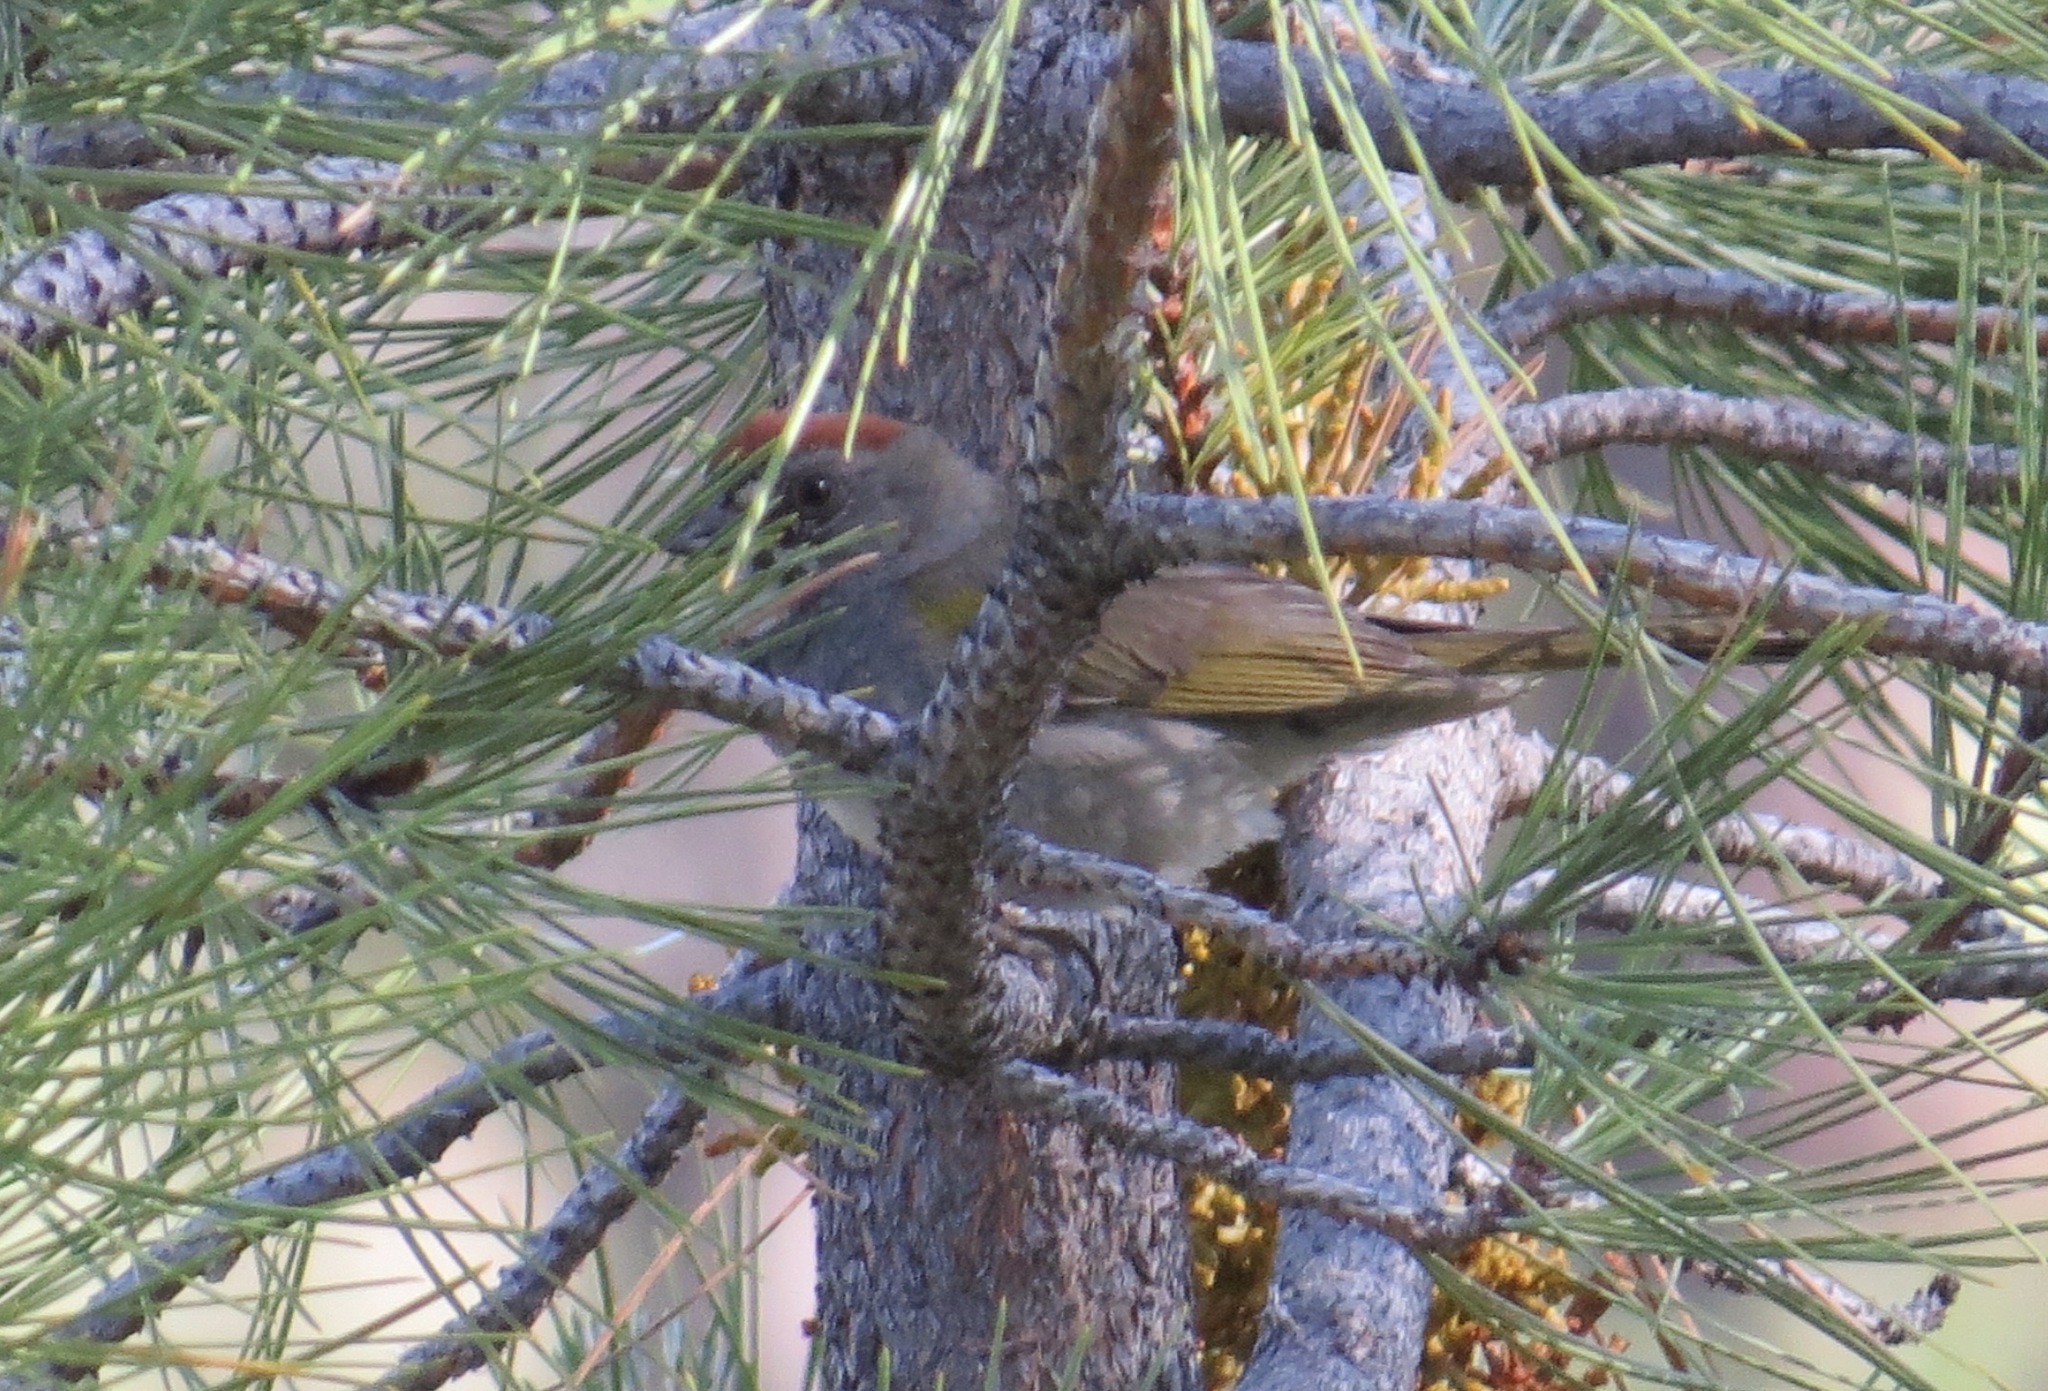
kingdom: Animalia
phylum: Chordata
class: Aves
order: Passeriformes
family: Passerellidae
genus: Pipilo
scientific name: Pipilo chlorurus
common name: Green-tailed towhee
